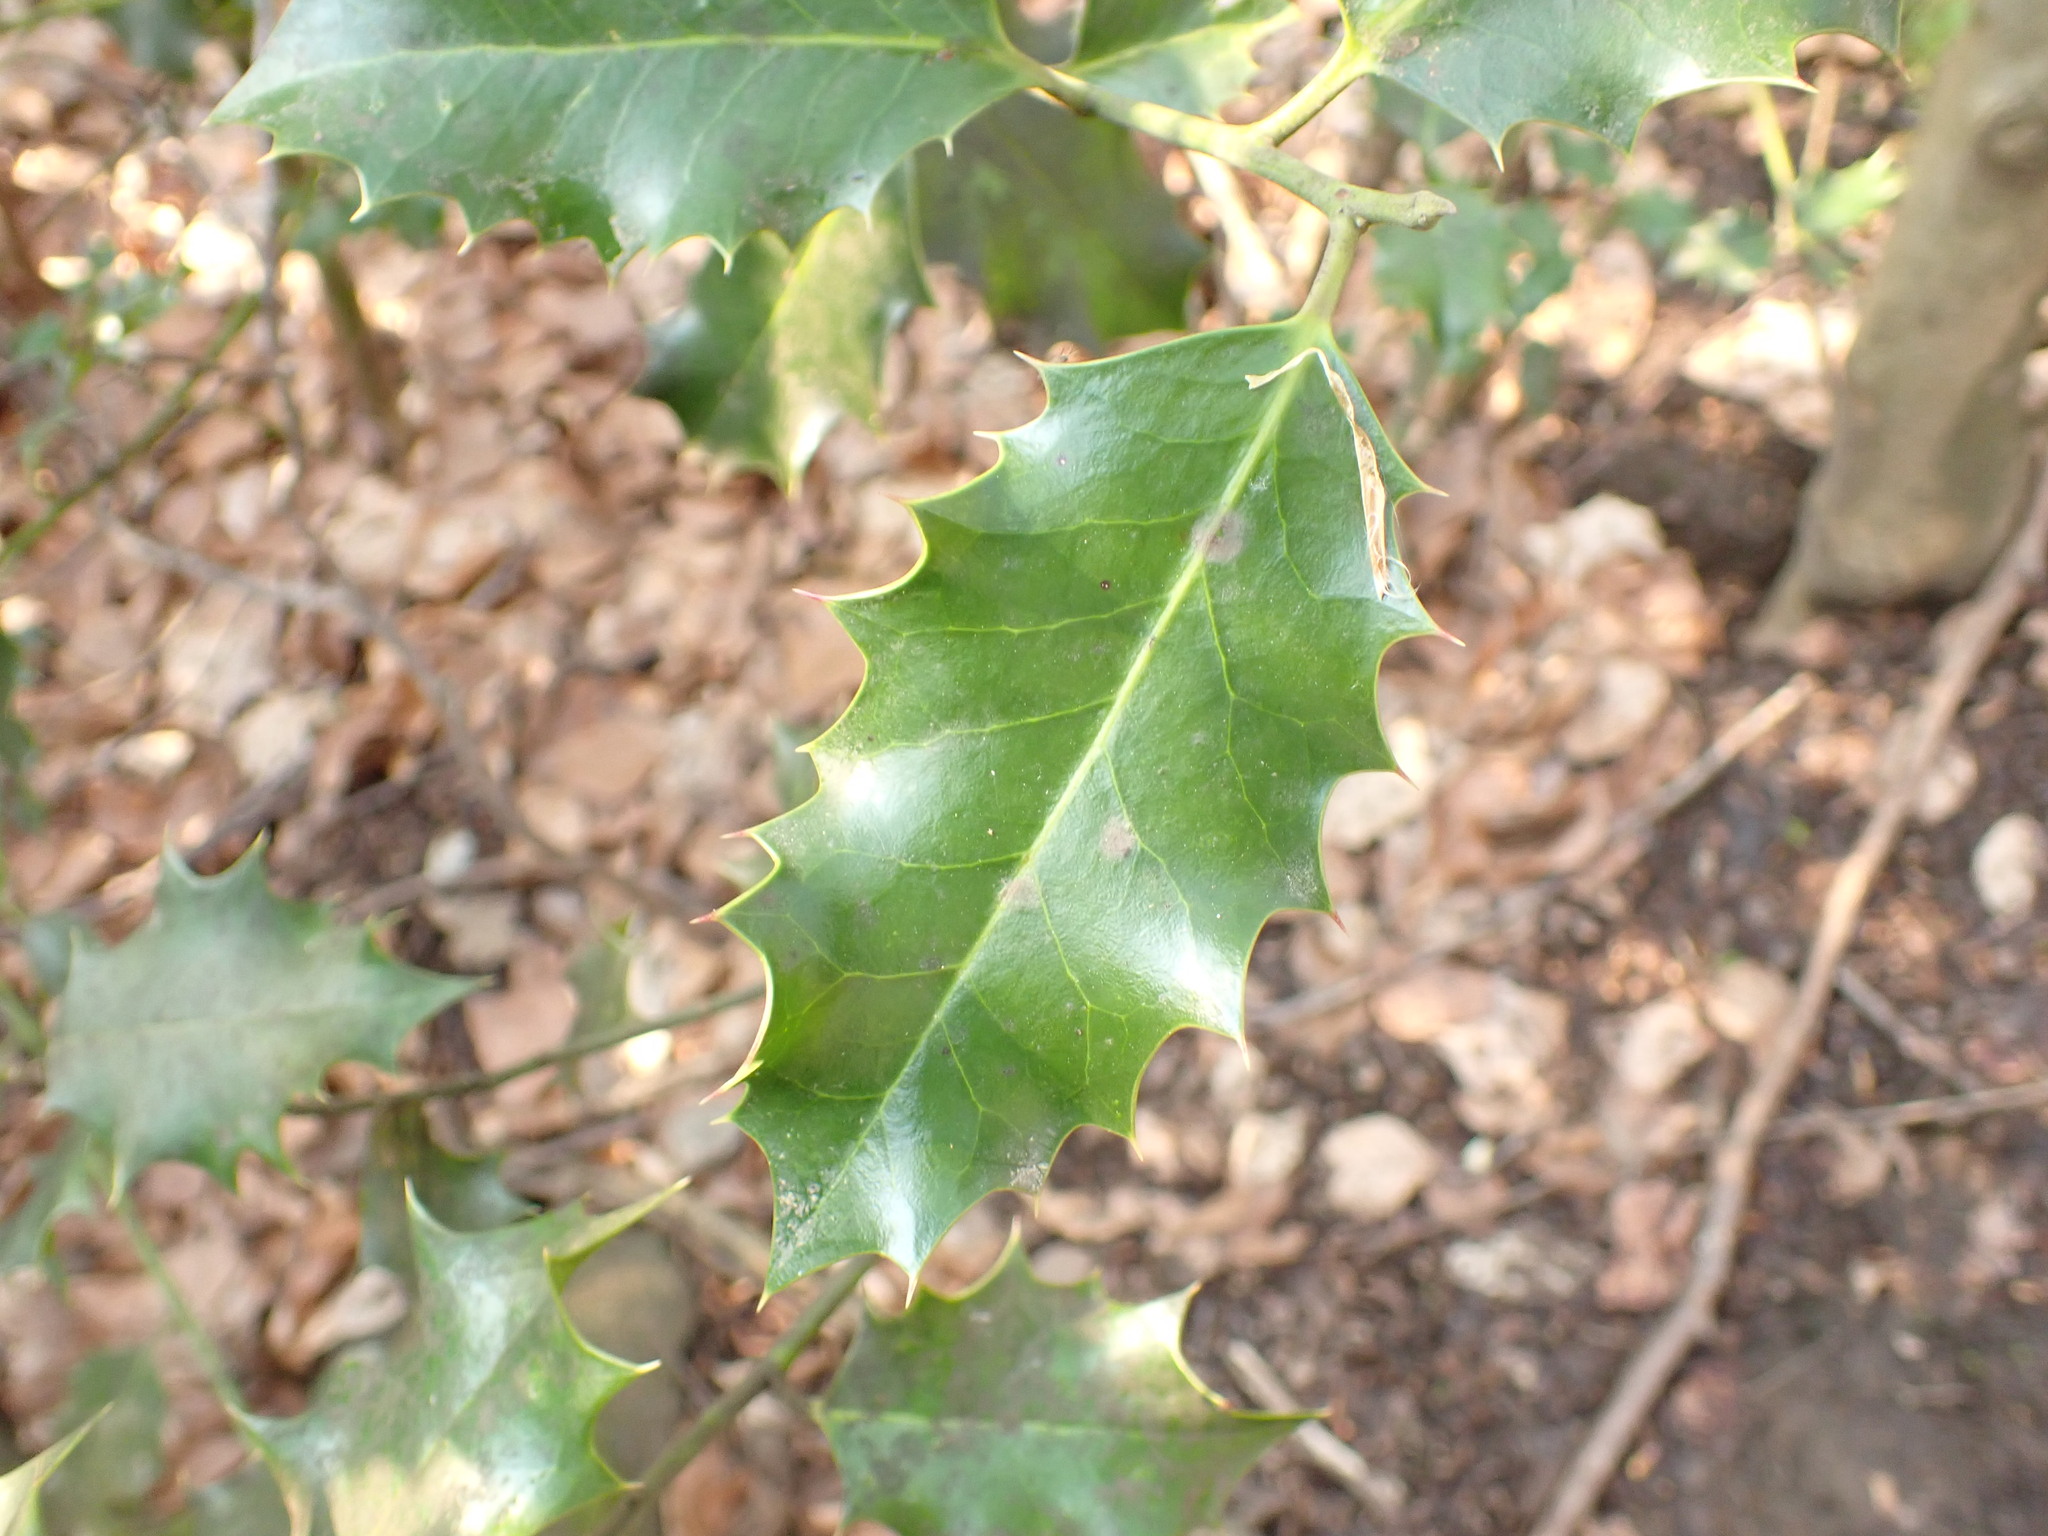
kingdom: Plantae
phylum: Tracheophyta
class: Magnoliopsida
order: Aquifoliales
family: Aquifoliaceae
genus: Ilex
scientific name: Ilex aquifolium
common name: English holly
